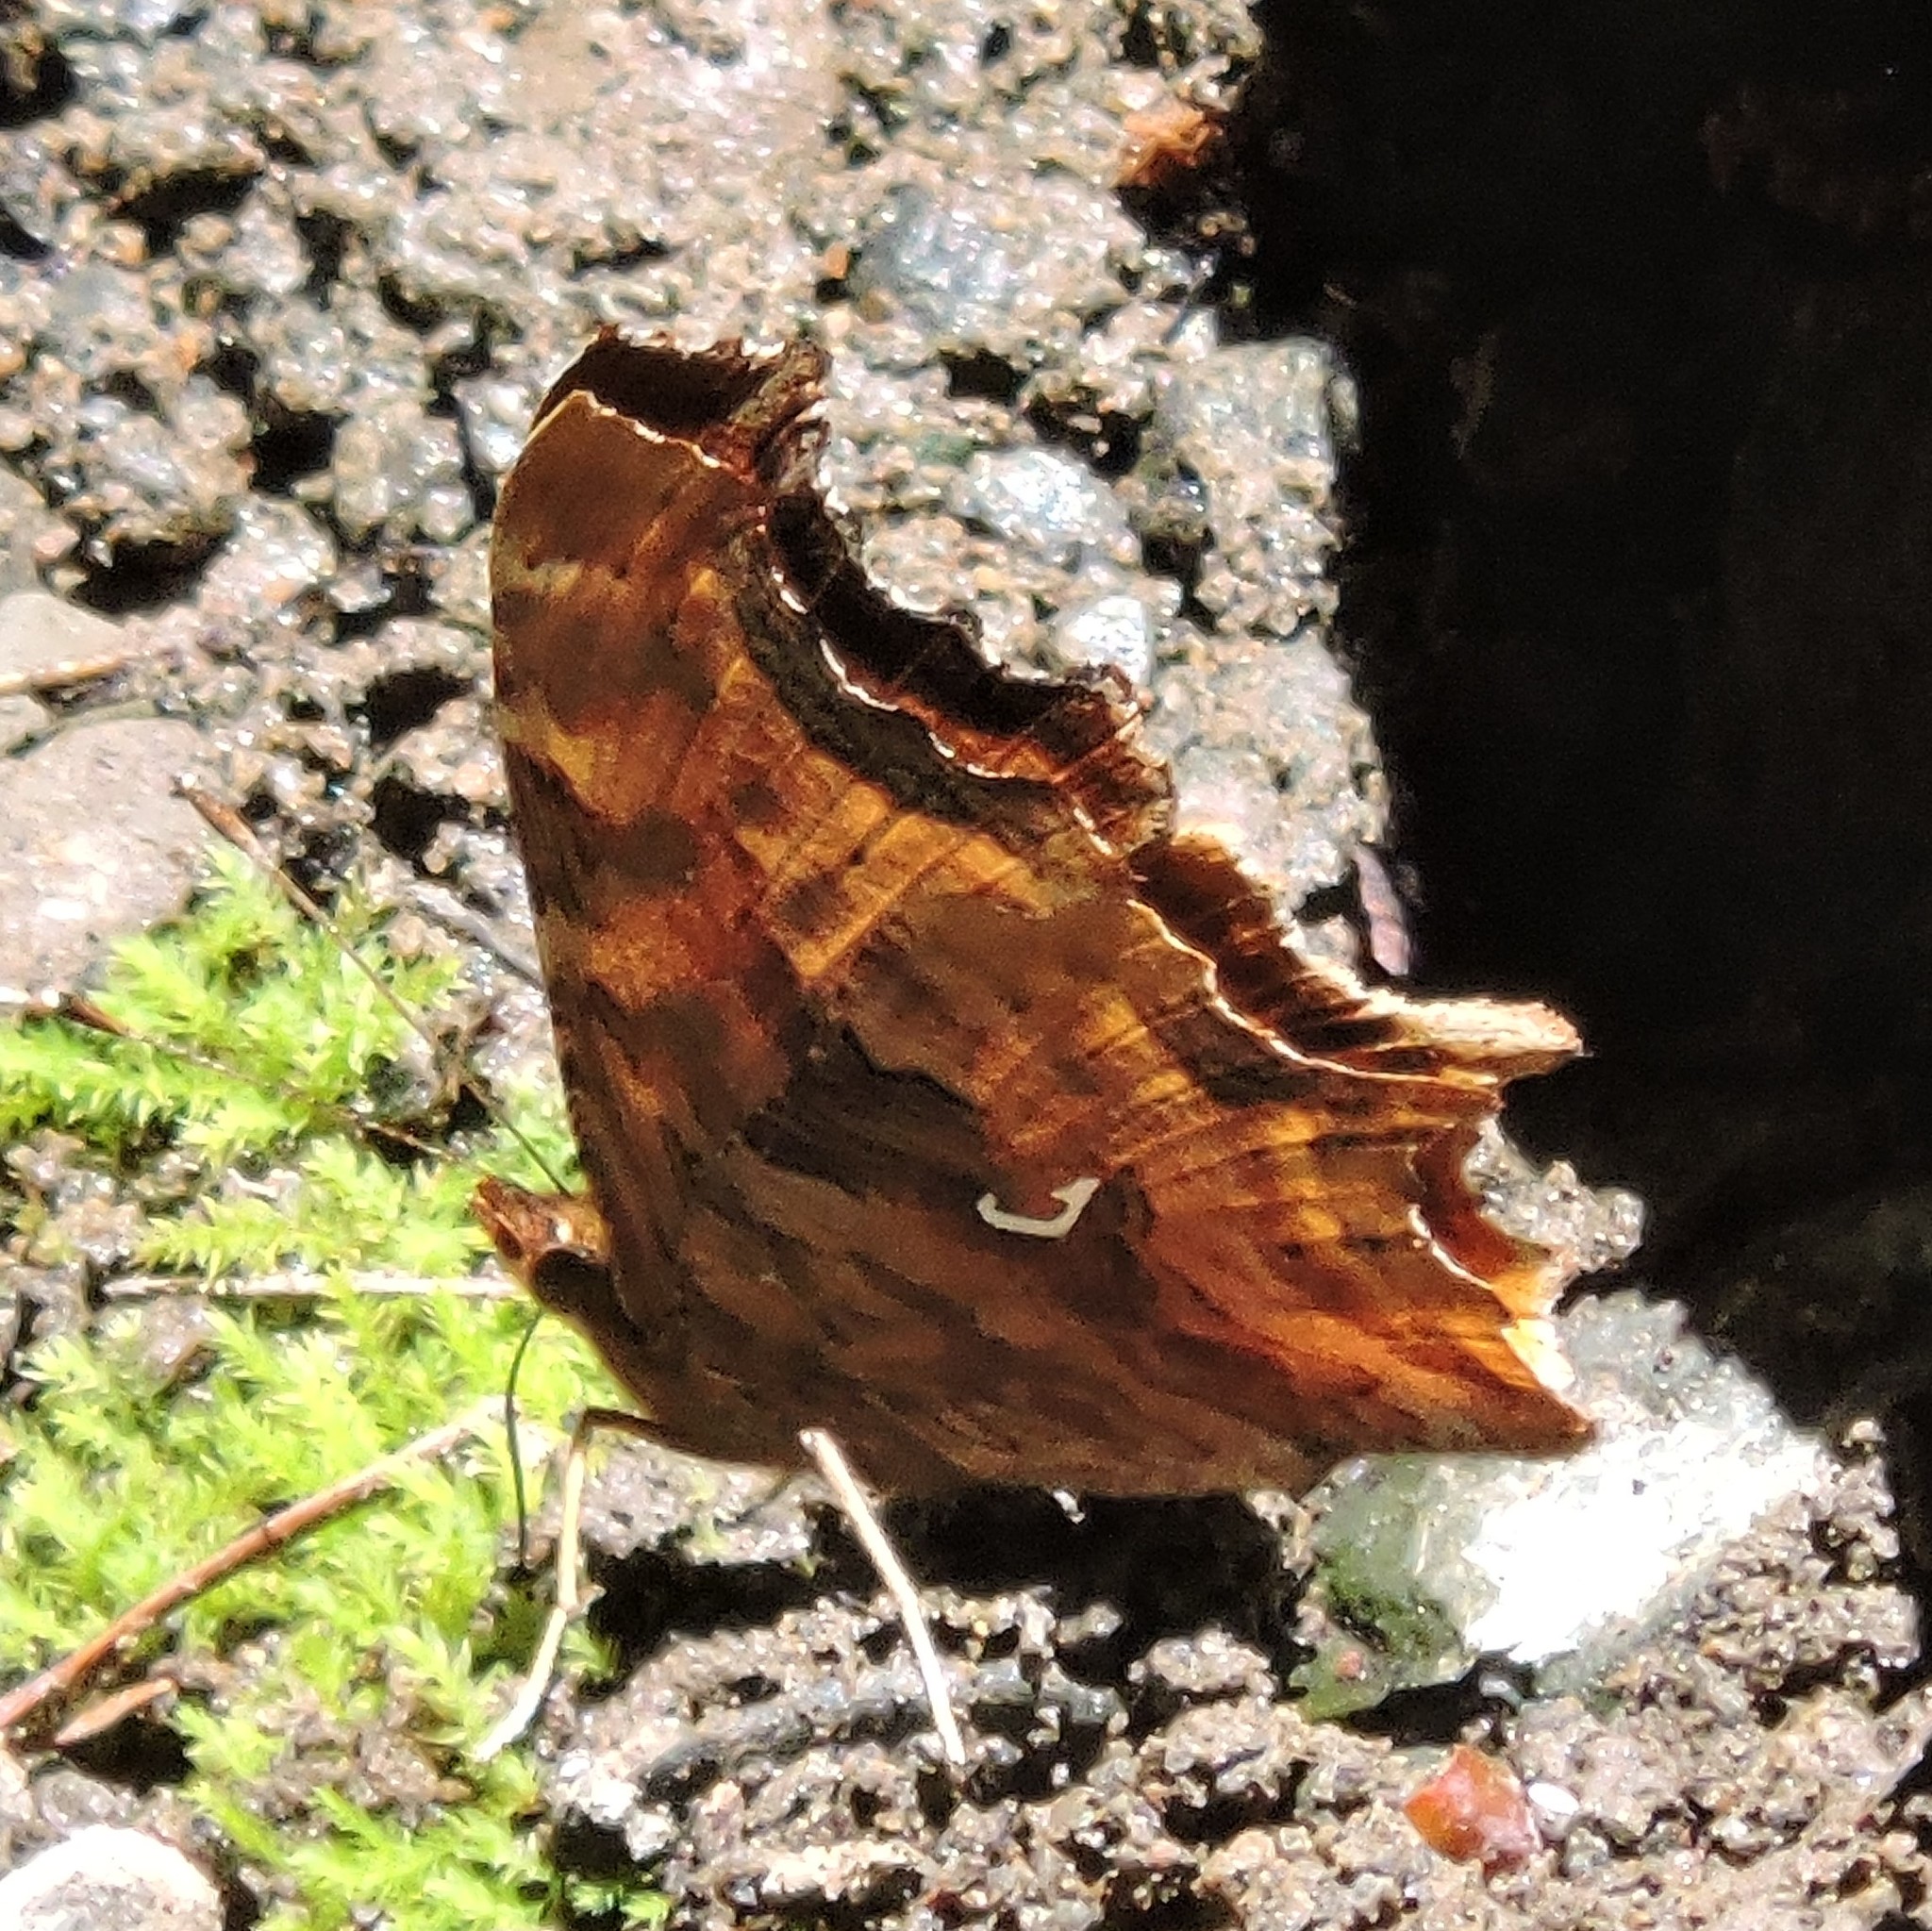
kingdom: Animalia
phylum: Arthropoda
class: Insecta
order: Lepidoptera
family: Nymphalidae
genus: Polygonia
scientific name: Polygonia satyrus
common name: Satyr angle wing
